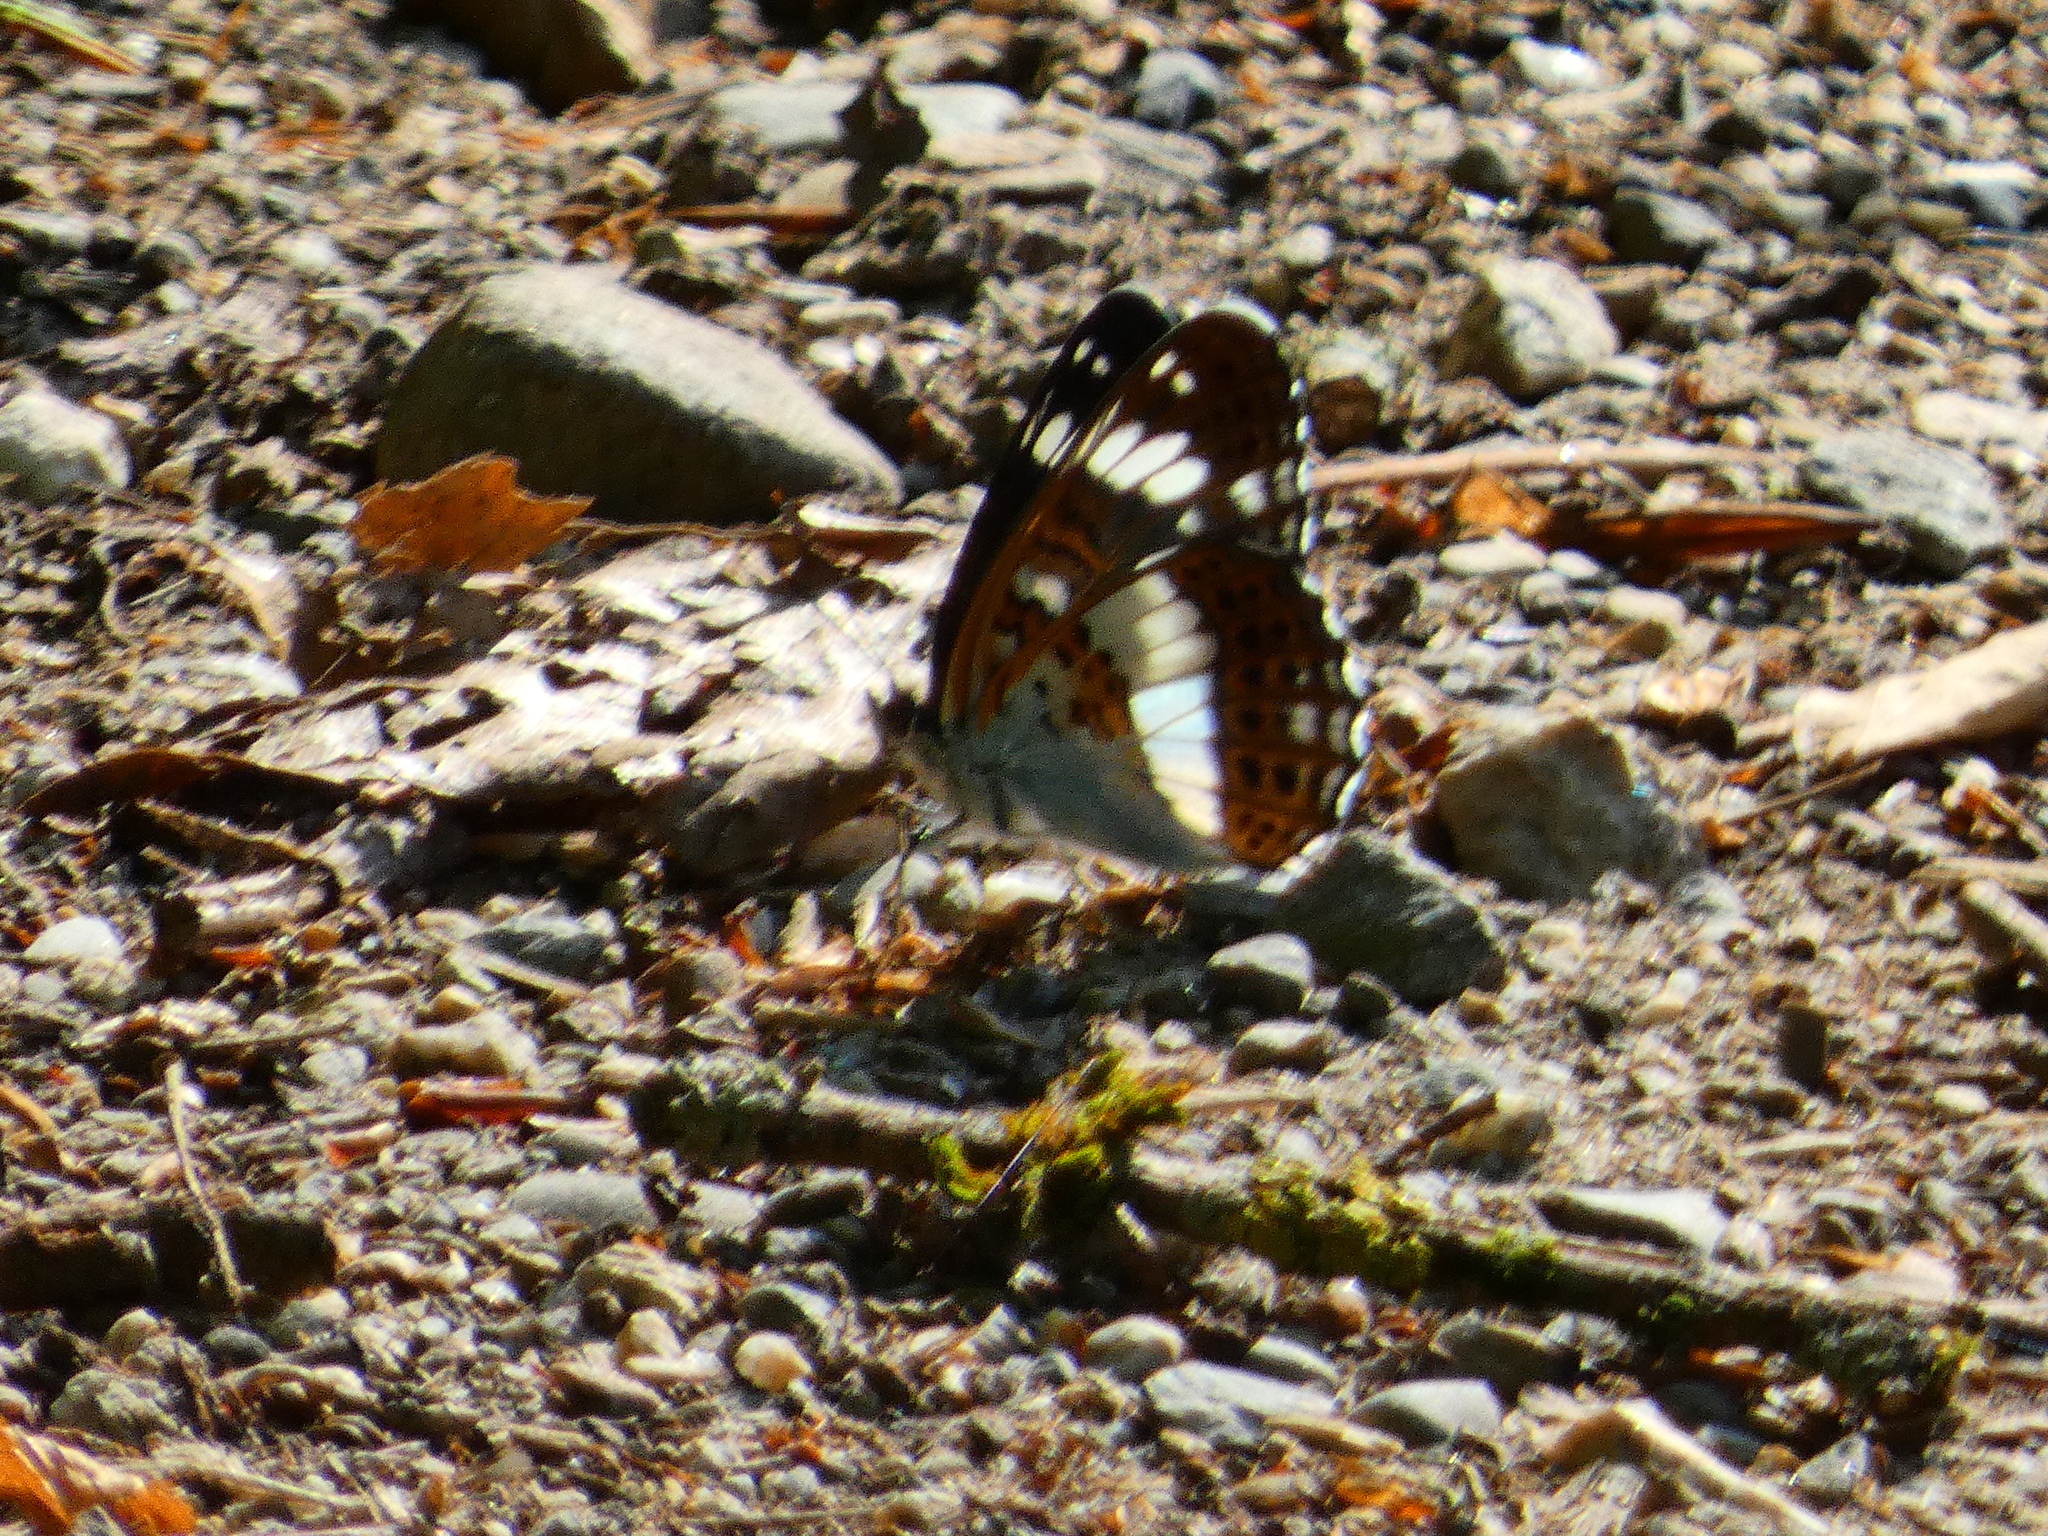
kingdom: Animalia
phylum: Arthropoda
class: Insecta
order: Lepidoptera
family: Nymphalidae
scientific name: Nymphalidae
